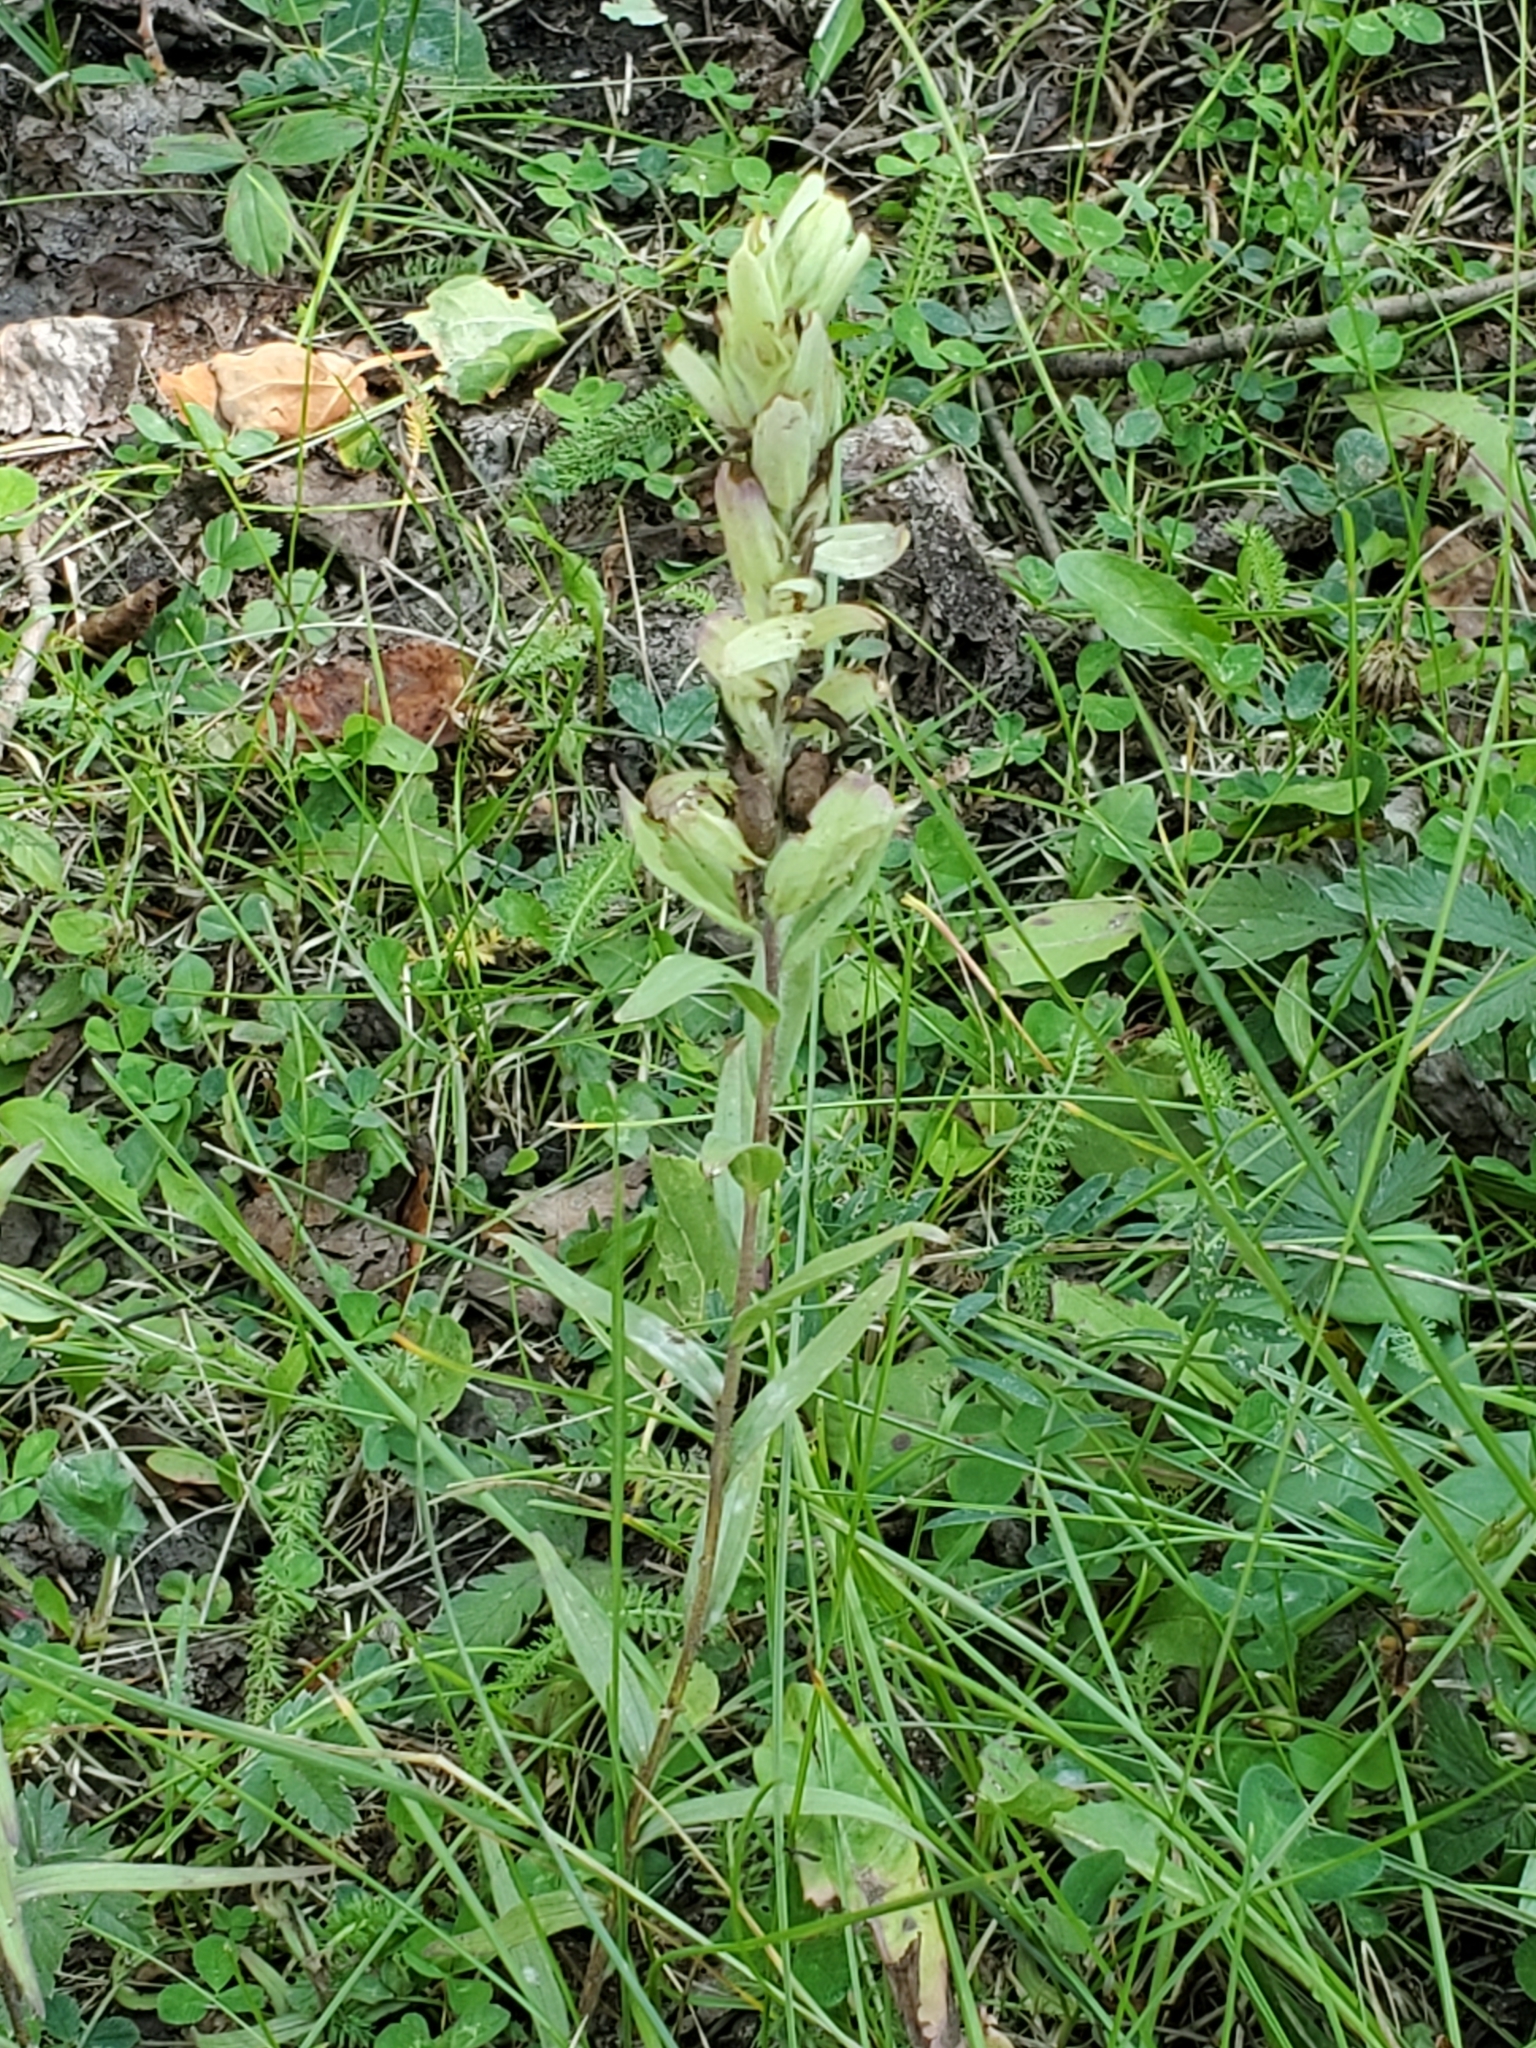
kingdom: Plantae
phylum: Tracheophyta
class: Magnoliopsida
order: Lamiales
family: Orobanchaceae
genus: Castilleja
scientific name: Castilleja septentrionalis
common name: Northeastern paintbrush
